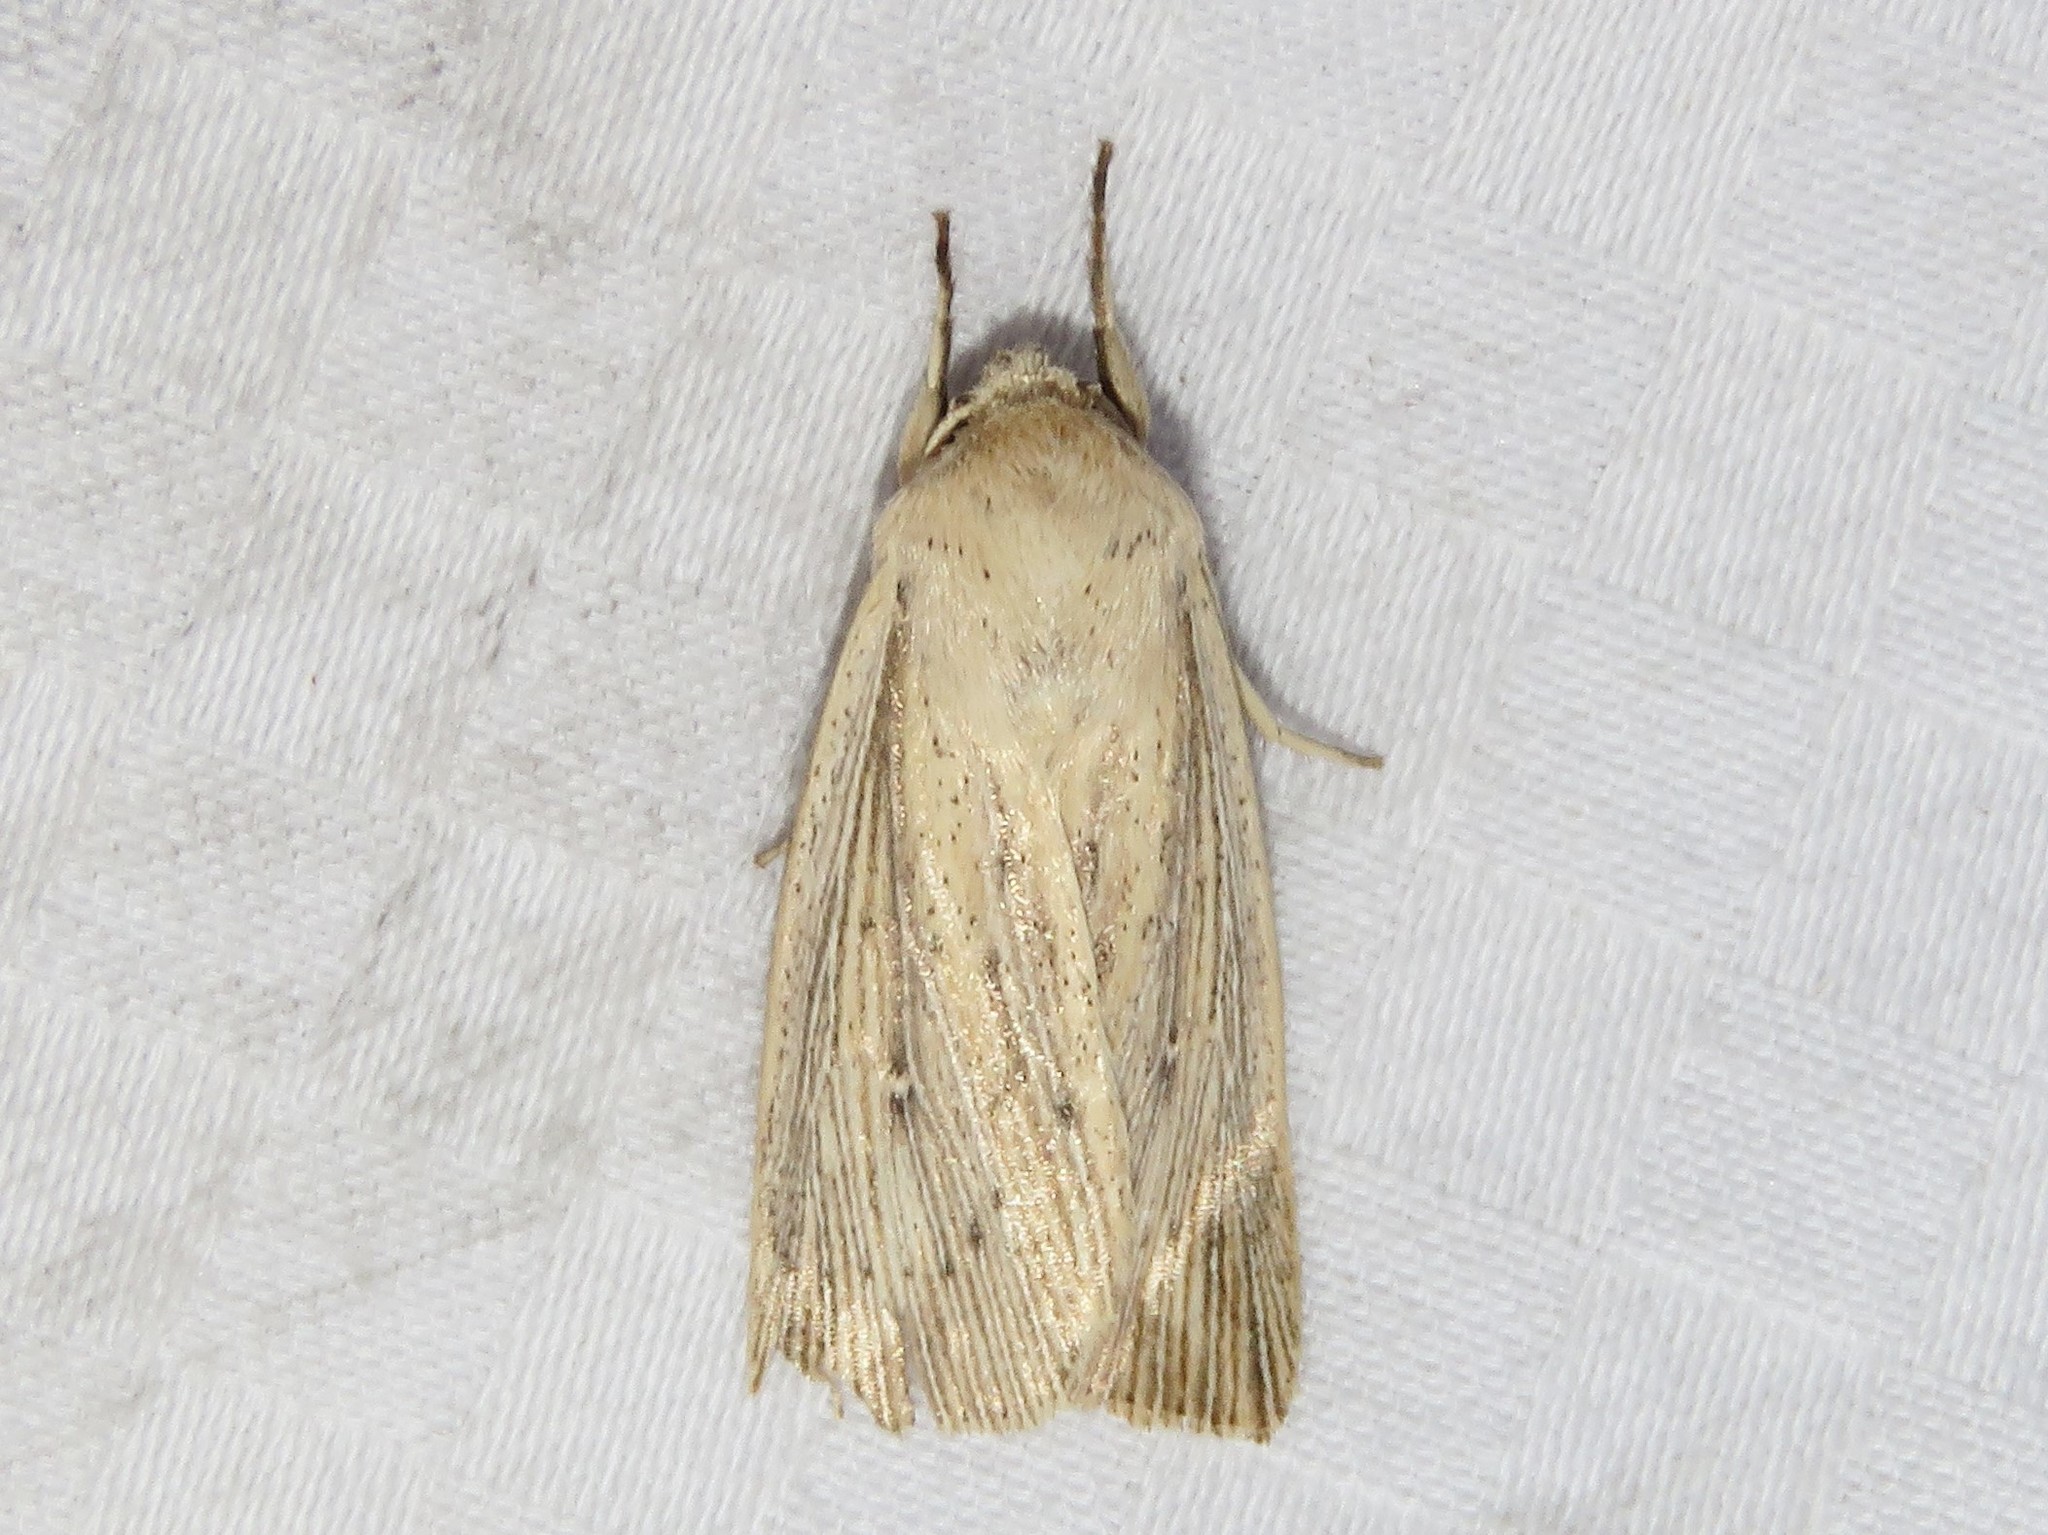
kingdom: Animalia
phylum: Arthropoda
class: Insecta
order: Lepidoptera
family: Noctuidae
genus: Leucania
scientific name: Leucania linita
